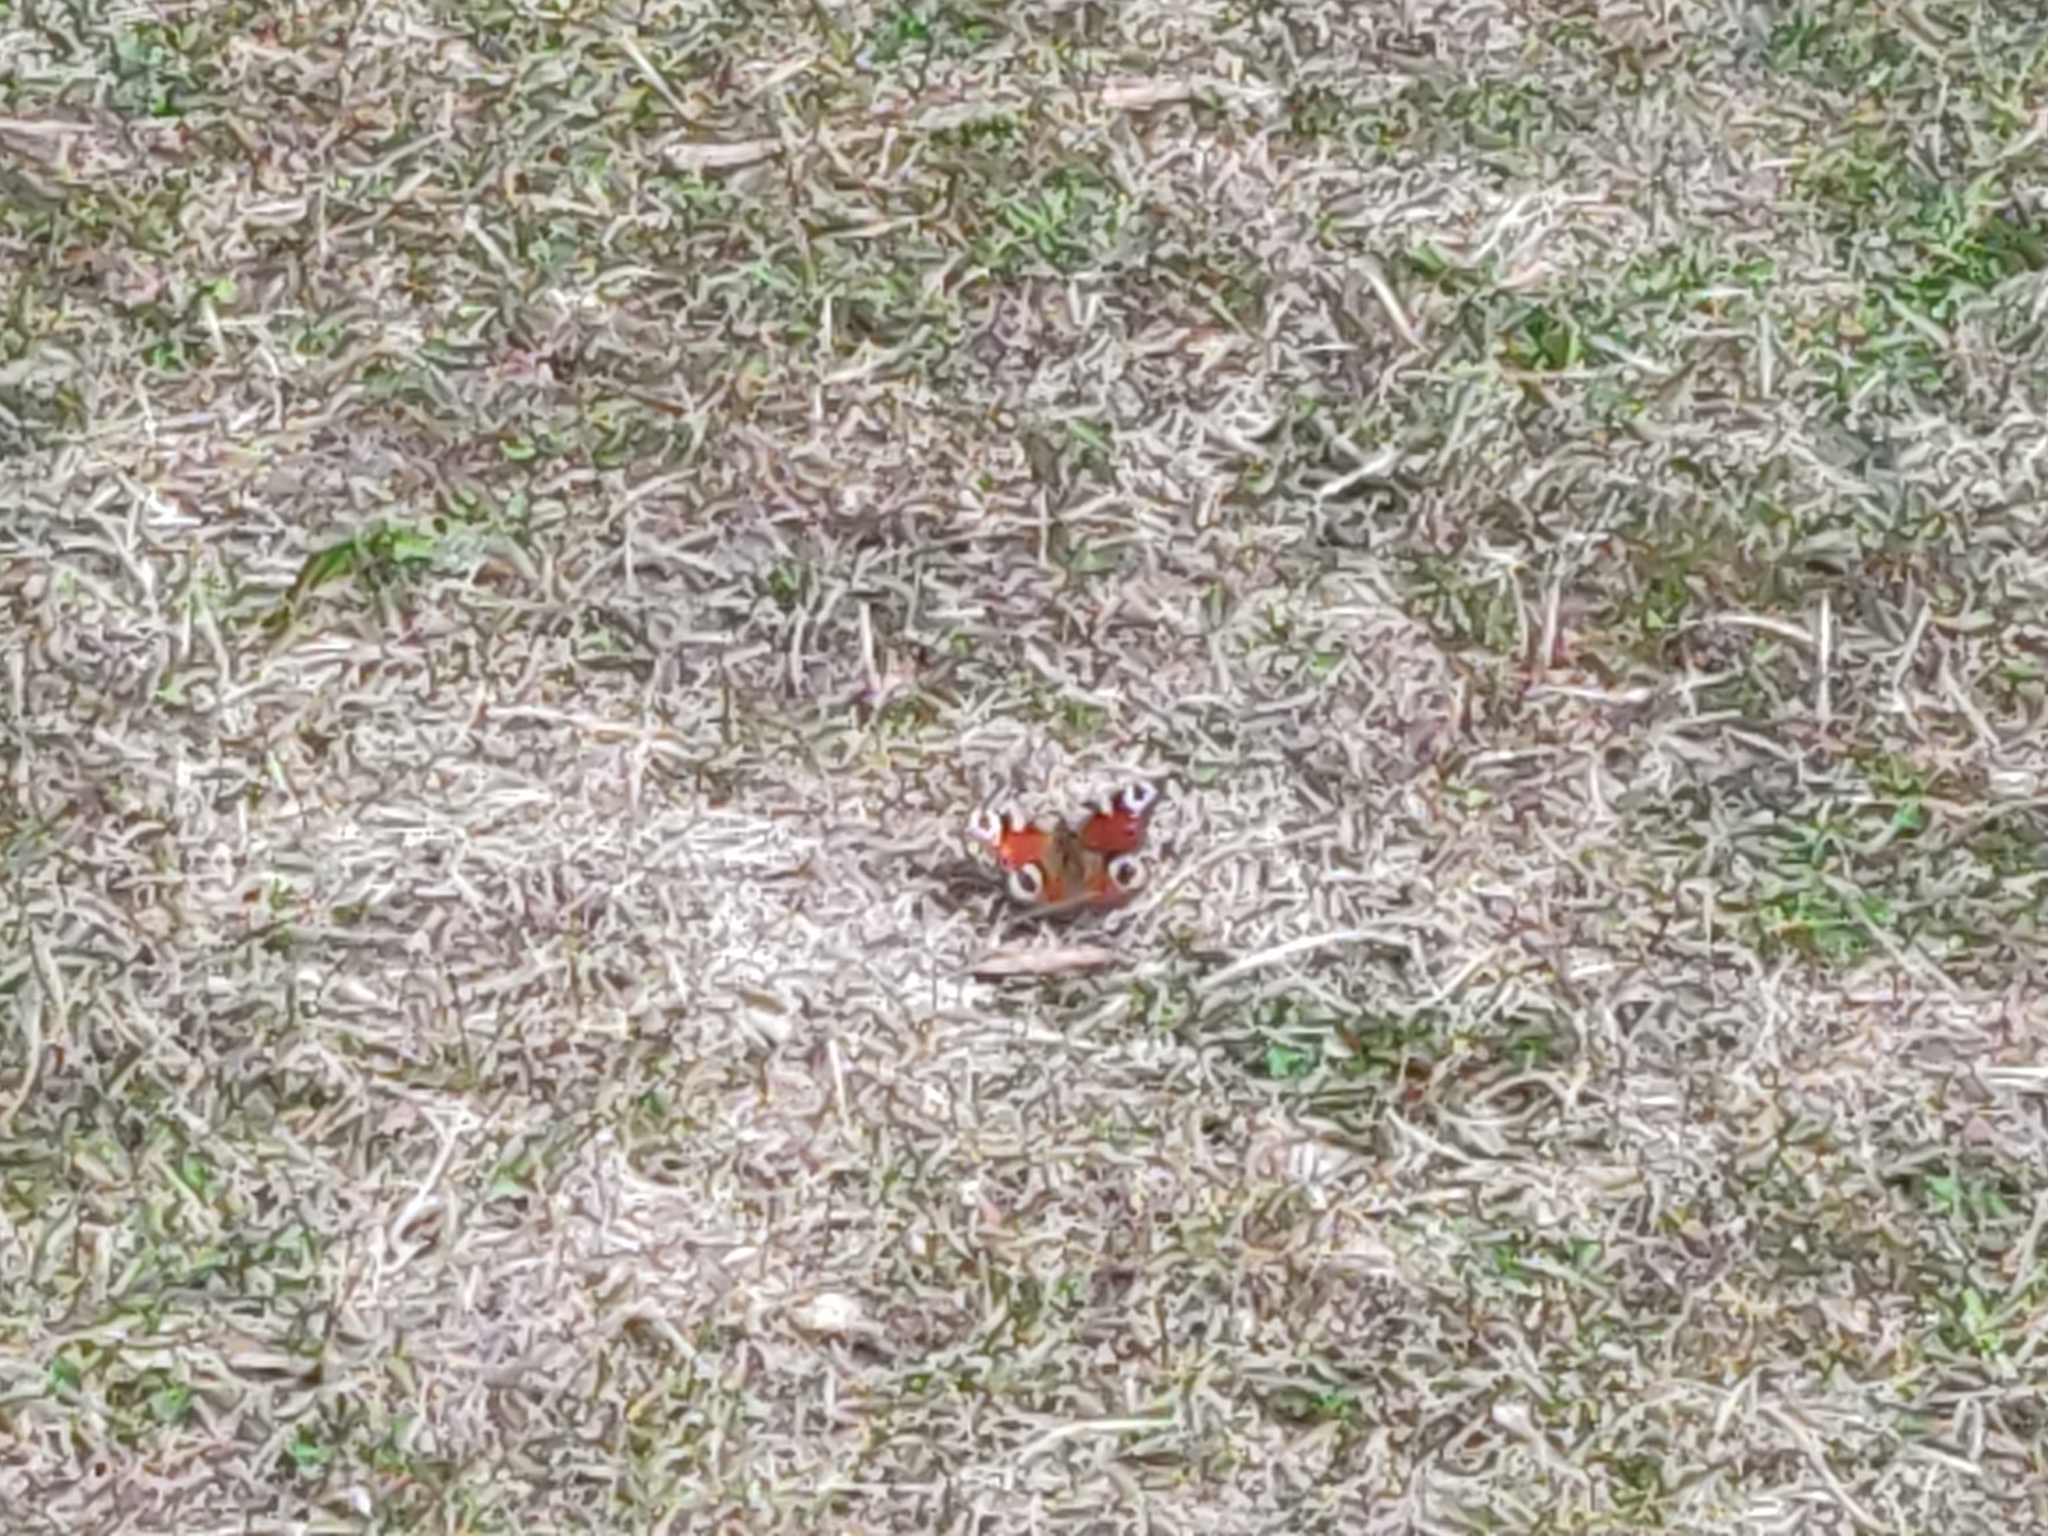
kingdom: Animalia
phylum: Arthropoda
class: Insecta
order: Lepidoptera
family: Nymphalidae
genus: Aglais
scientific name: Aglais io
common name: Peacock
